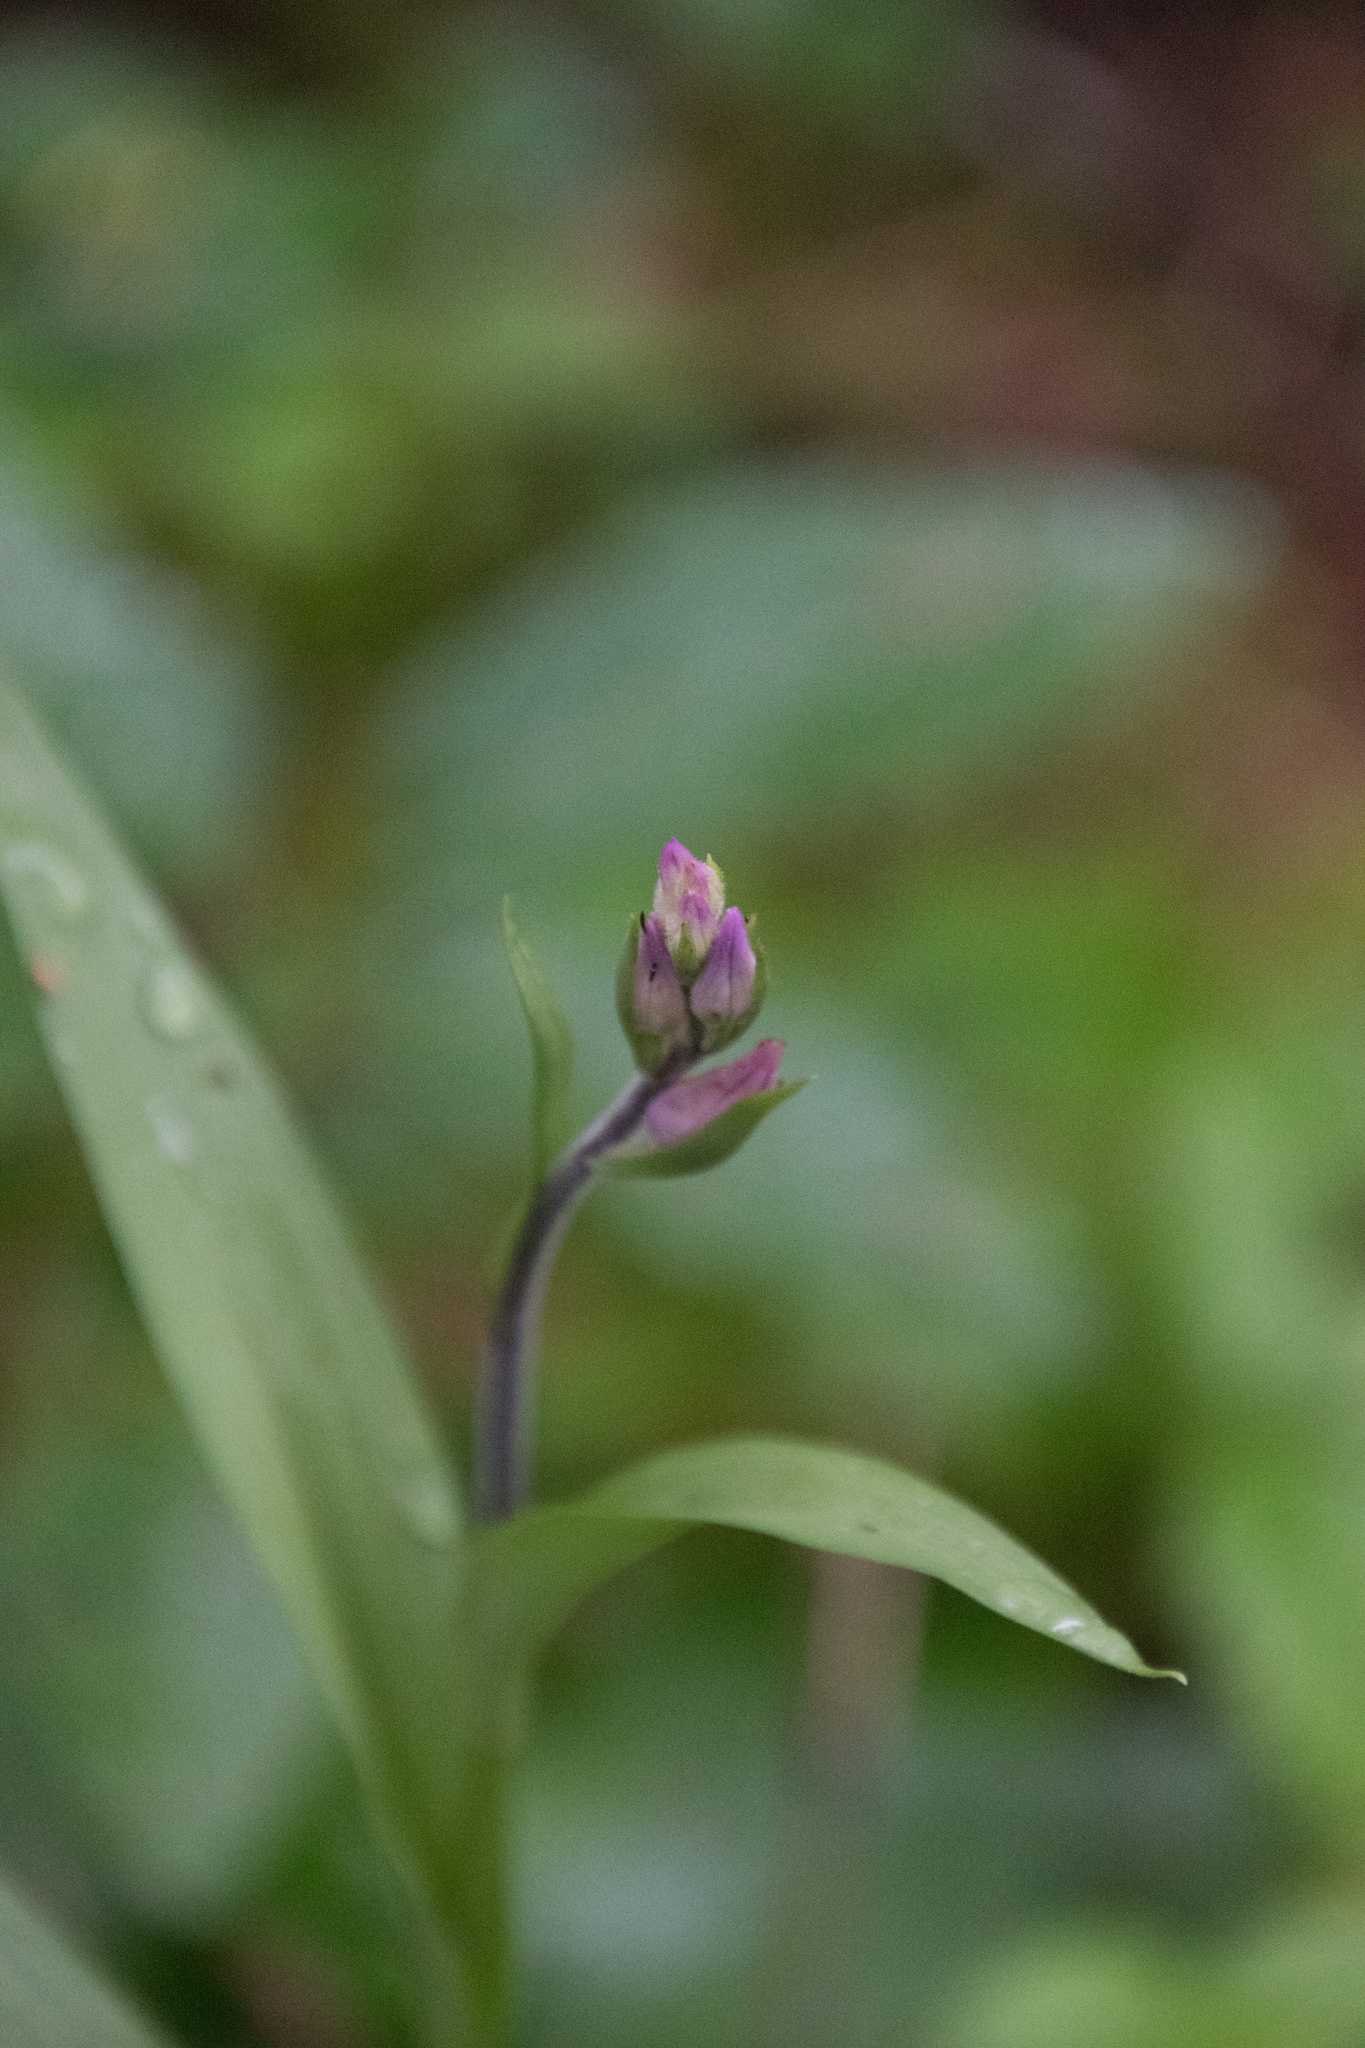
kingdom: Plantae
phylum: Tracheophyta
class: Liliopsida
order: Asparagales
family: Orchidaceae
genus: Cephalanthera
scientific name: Cephalanthera rubra
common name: Red helleborine
